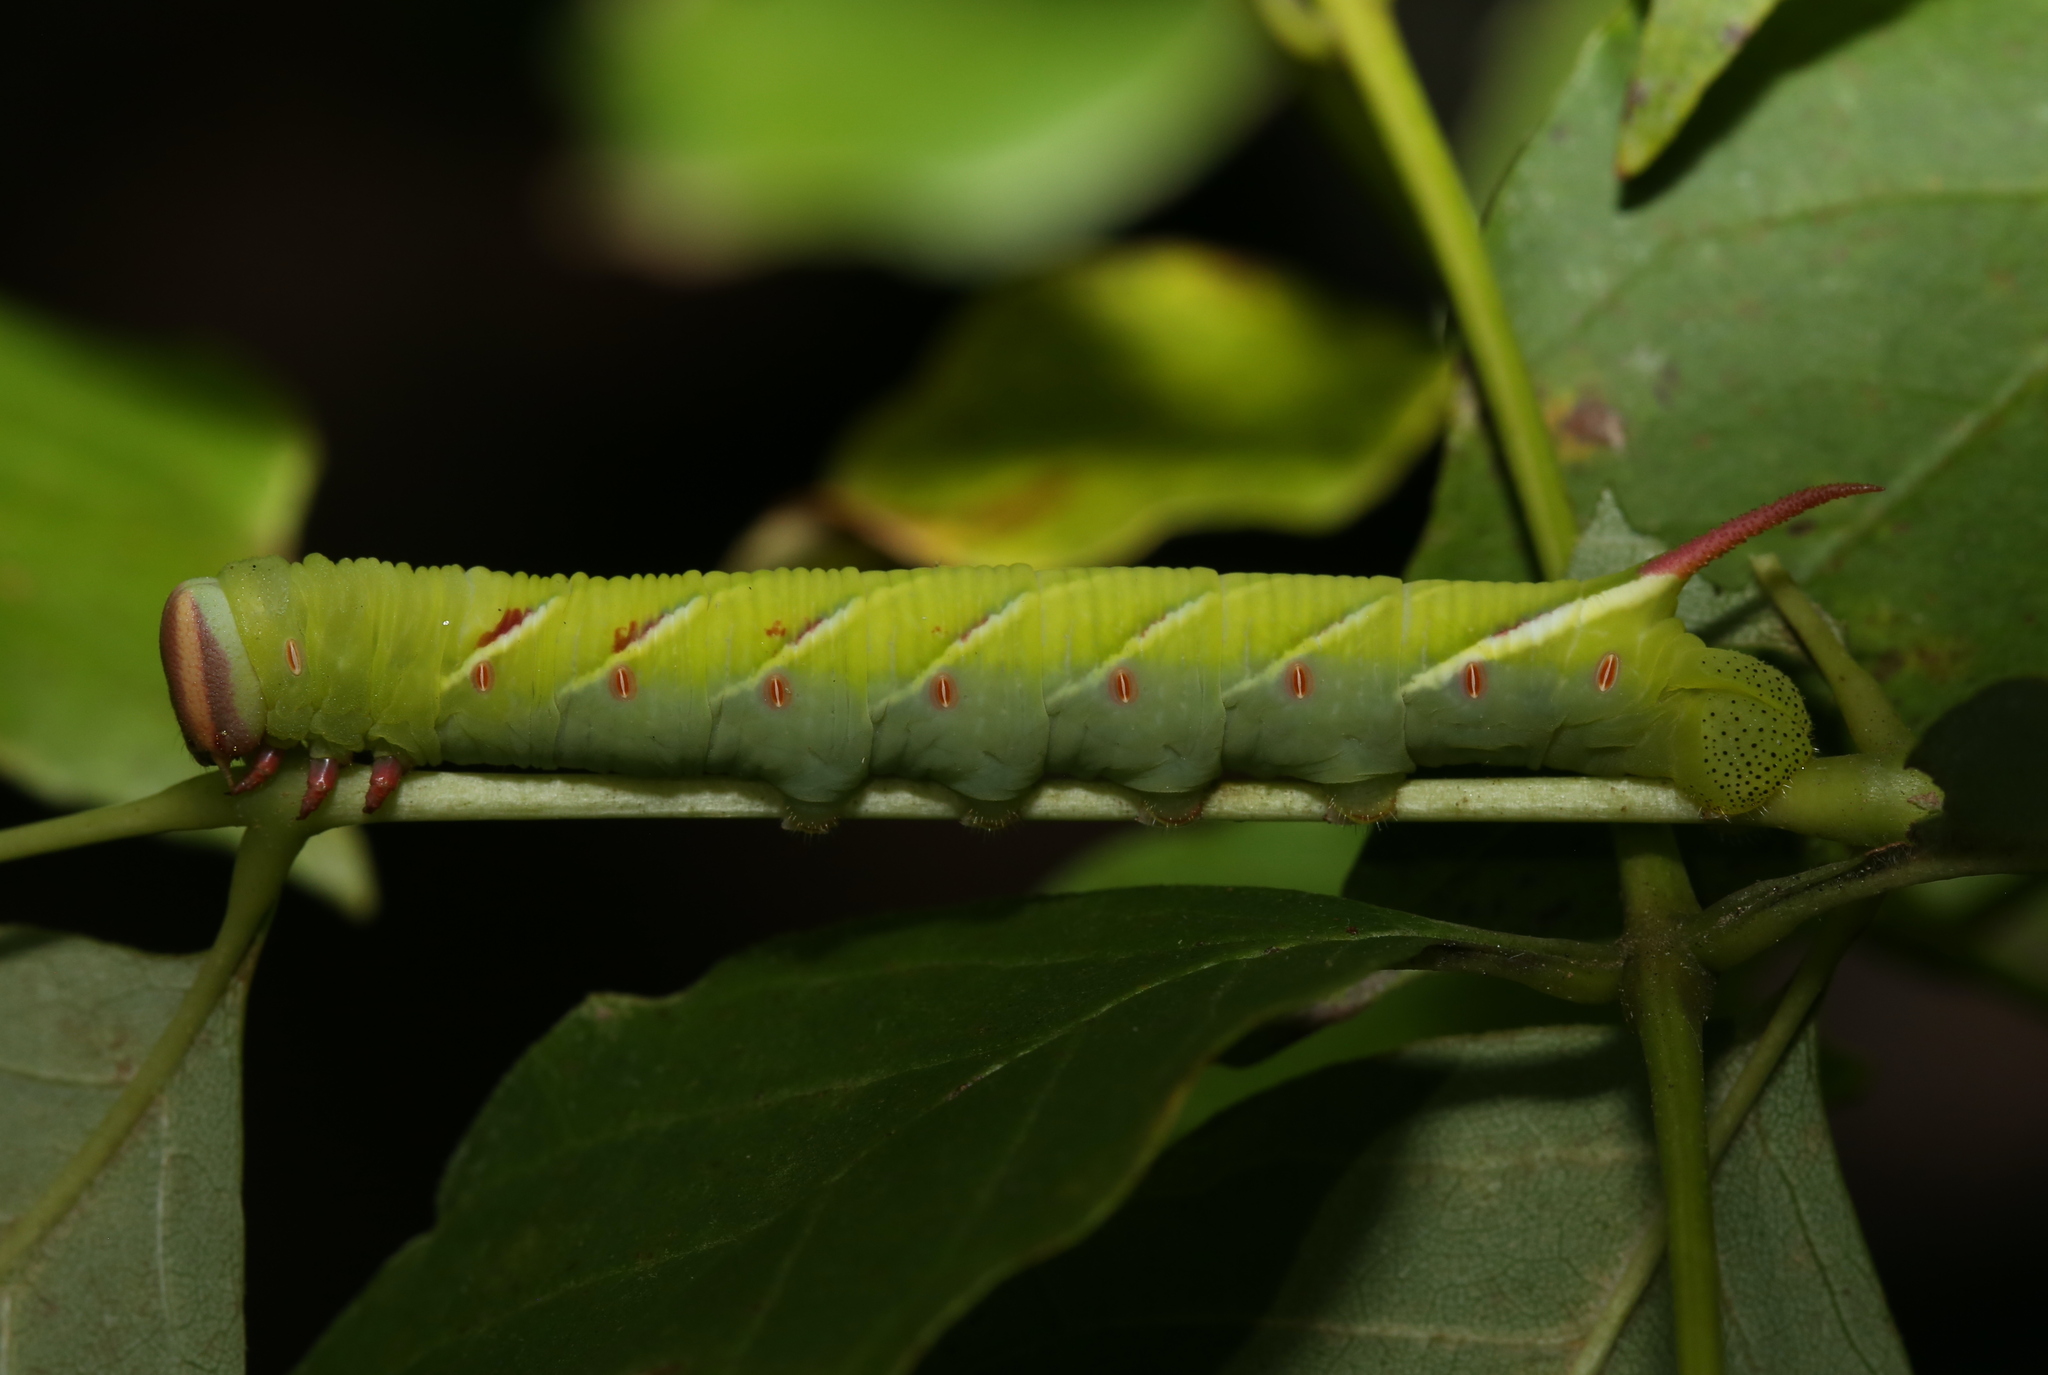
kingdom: Animalia
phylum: Arthropoda
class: Insecta
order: Lepidoptera
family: Sphingidae
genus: Ceratomia
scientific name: Ceratomia undulosa
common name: Waved sphinx
